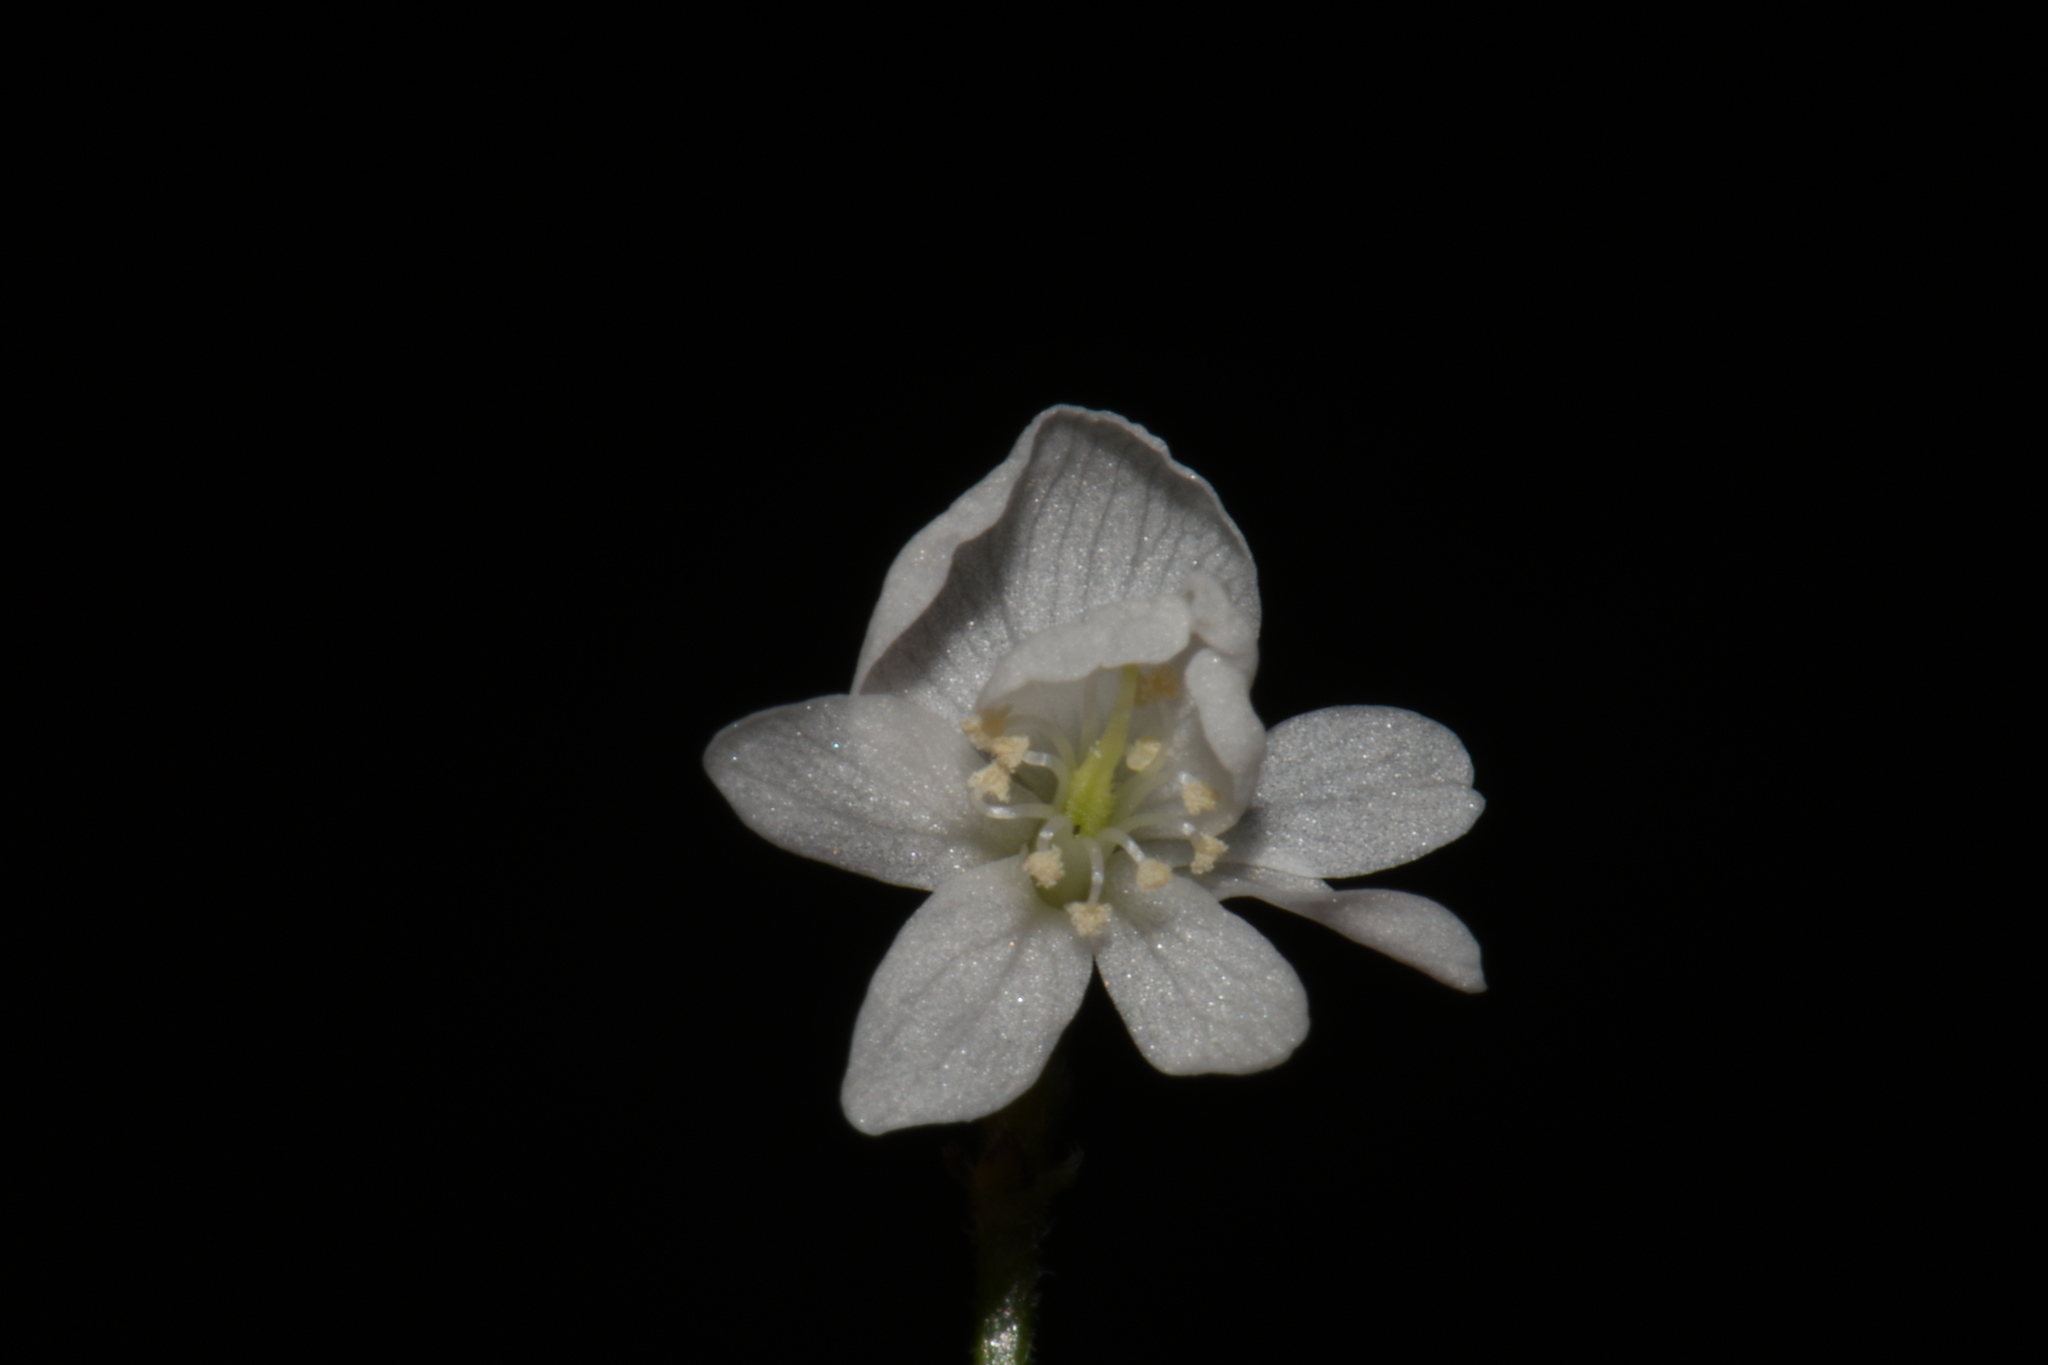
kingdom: Plantae
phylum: Tracheophyta
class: Magnoliopsida
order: Fabales
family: Fabaceae
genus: Hylodesmum
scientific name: Hylodesmum pauciflorum
